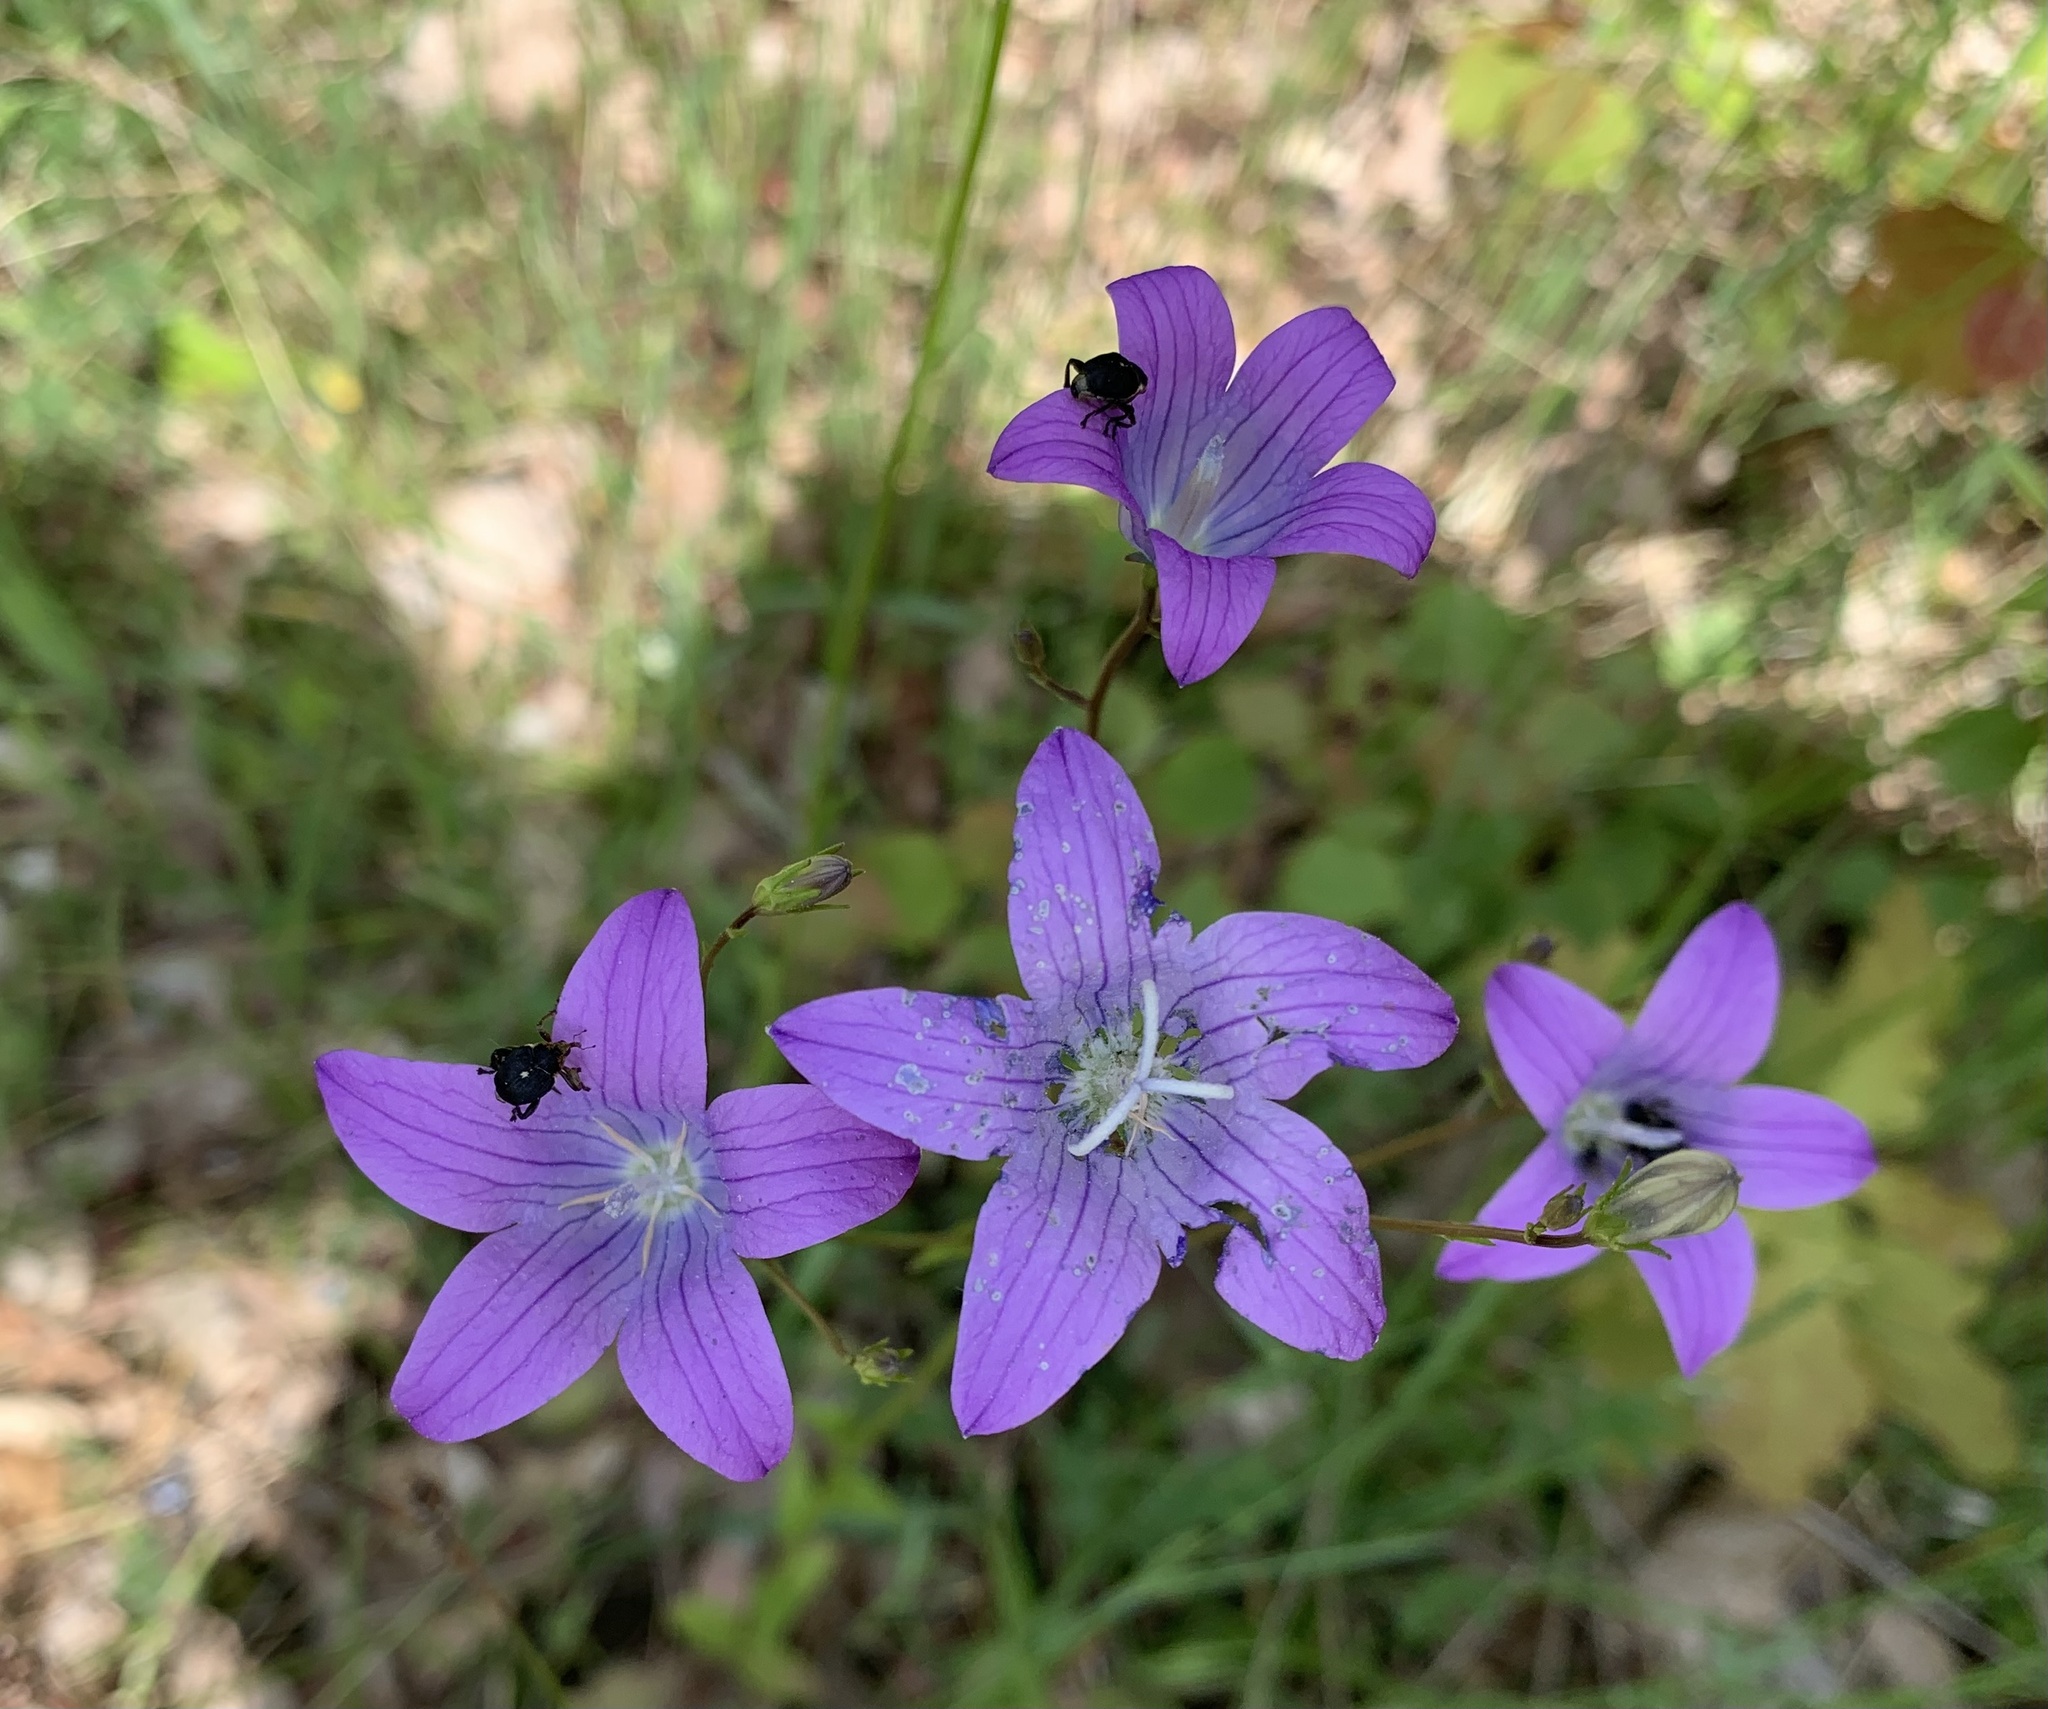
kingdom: Plantae
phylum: Tracheophyta
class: Magnoliopsida
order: Asterales
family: Campanulaceae
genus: Campanula
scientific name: Campanula patula
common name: Spreading bellflower
